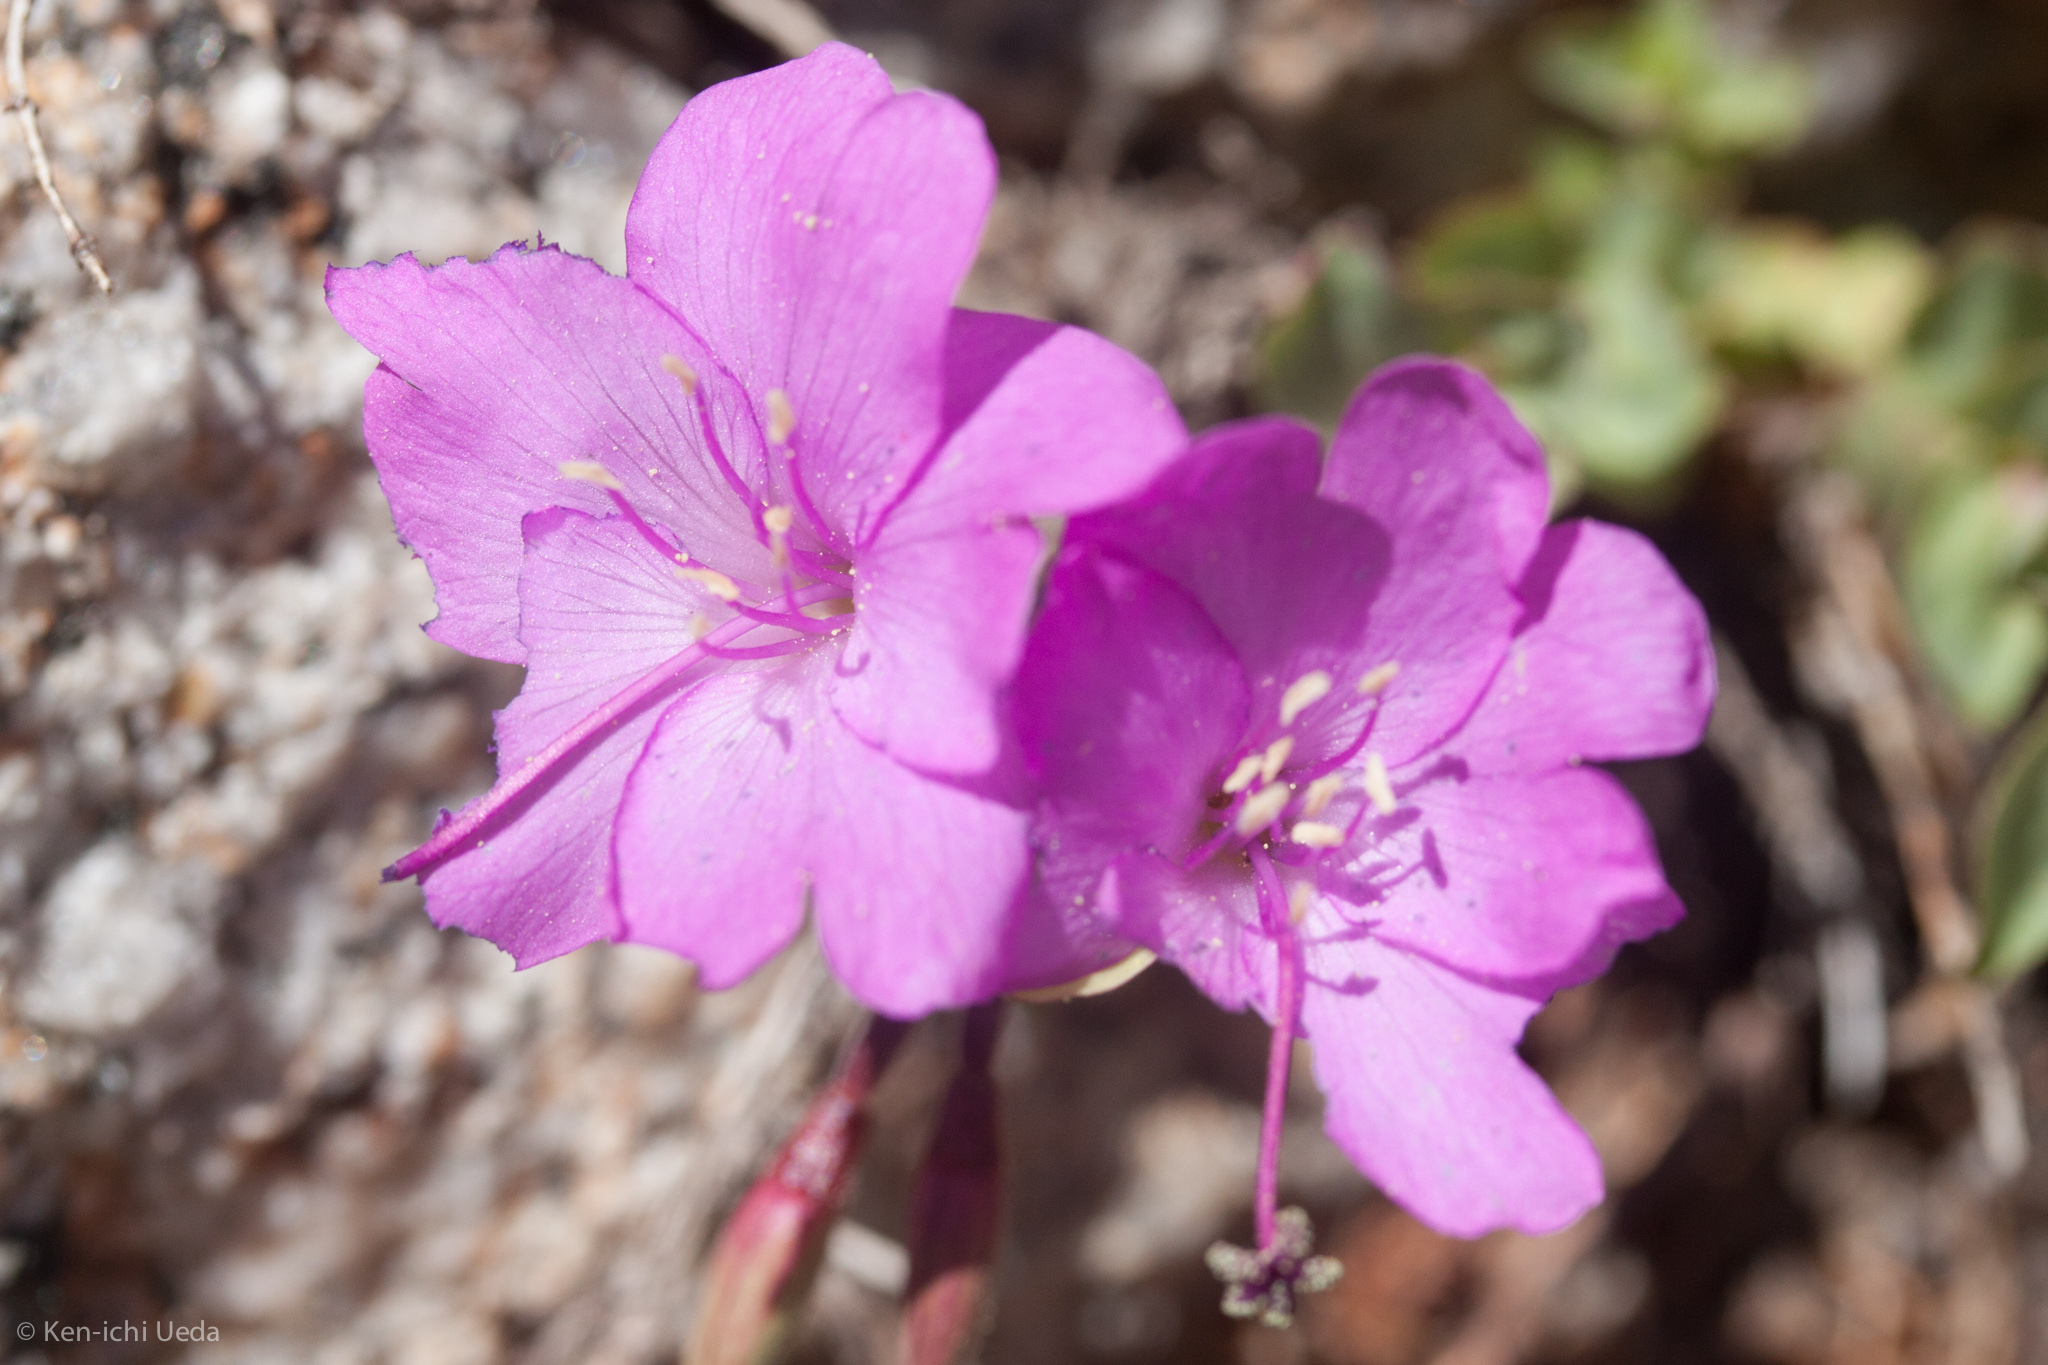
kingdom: Plantae
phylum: Tracheophyta
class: Magnoliopsida
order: Myrtales
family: Onagraceae
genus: Epilobium
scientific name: Epilobium obcordatum
